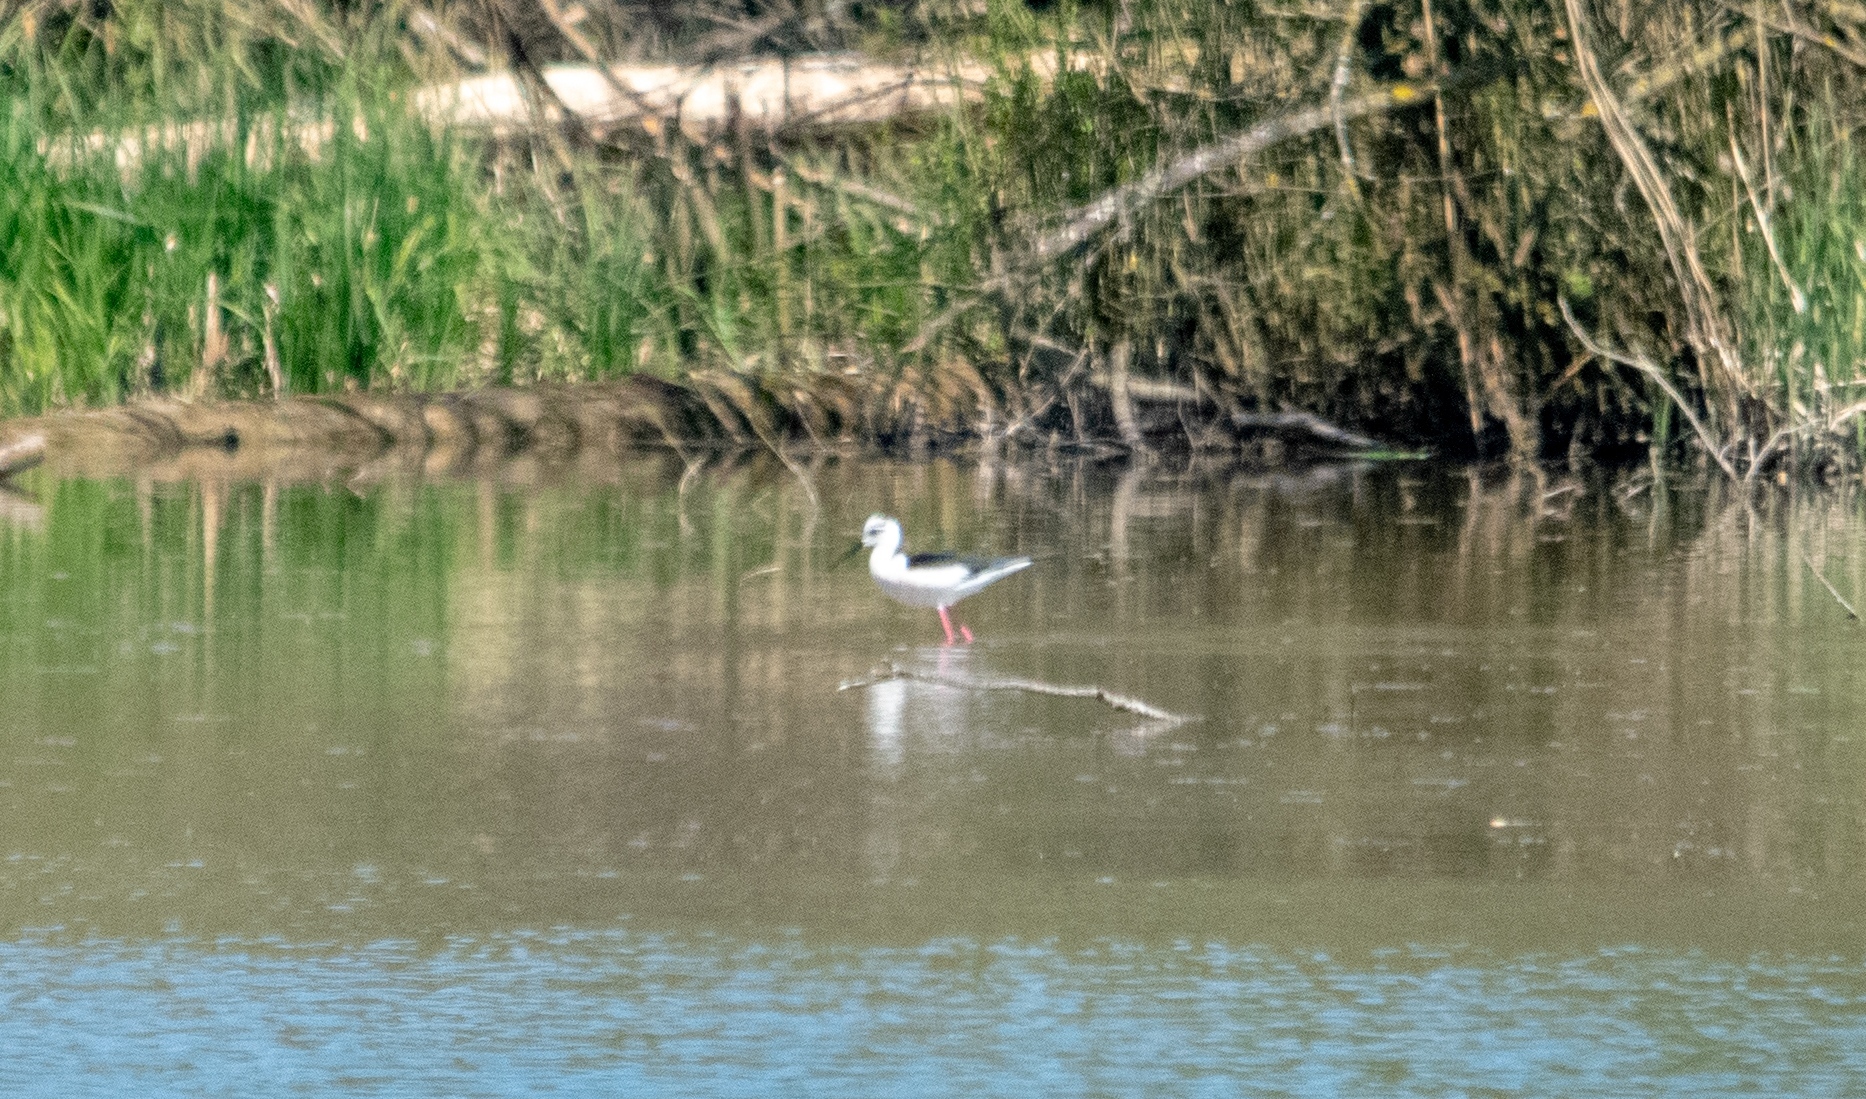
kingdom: Animalia
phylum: Chordata
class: Aves
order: Charadriiformes
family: Recurvirostridae
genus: Himantopus
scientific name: Himantopus himantopus
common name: Black-winged stilt
